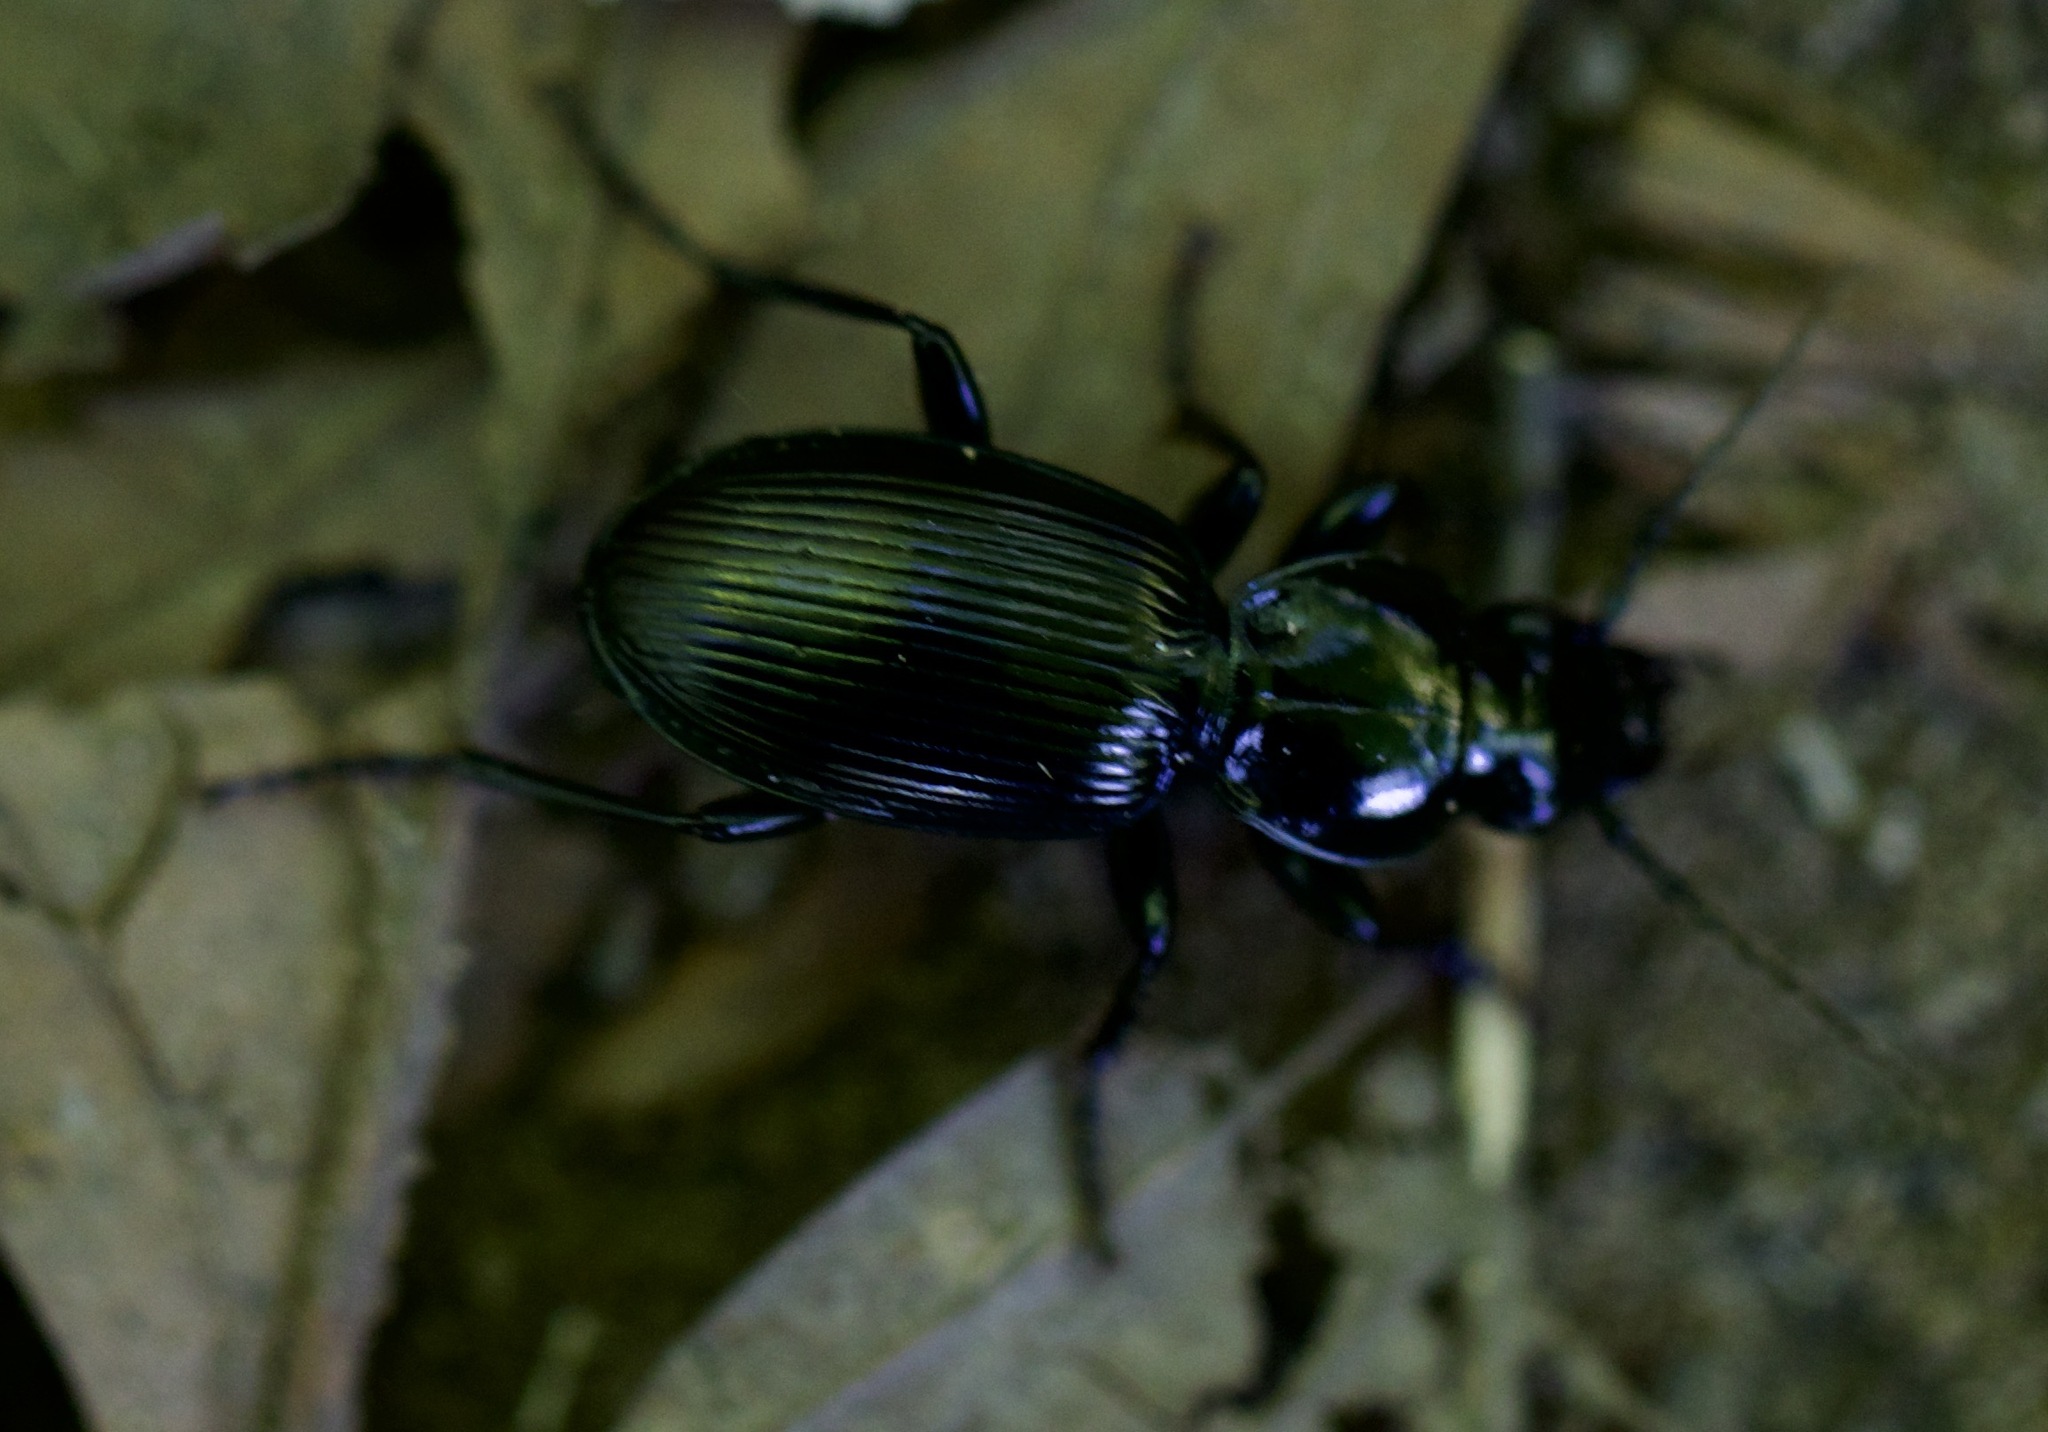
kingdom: Animalia
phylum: Arthropoda
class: Insecta
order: Coleoptera
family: Carabidae
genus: Pterostichus
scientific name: Pterostichus madidus
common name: Black clock
